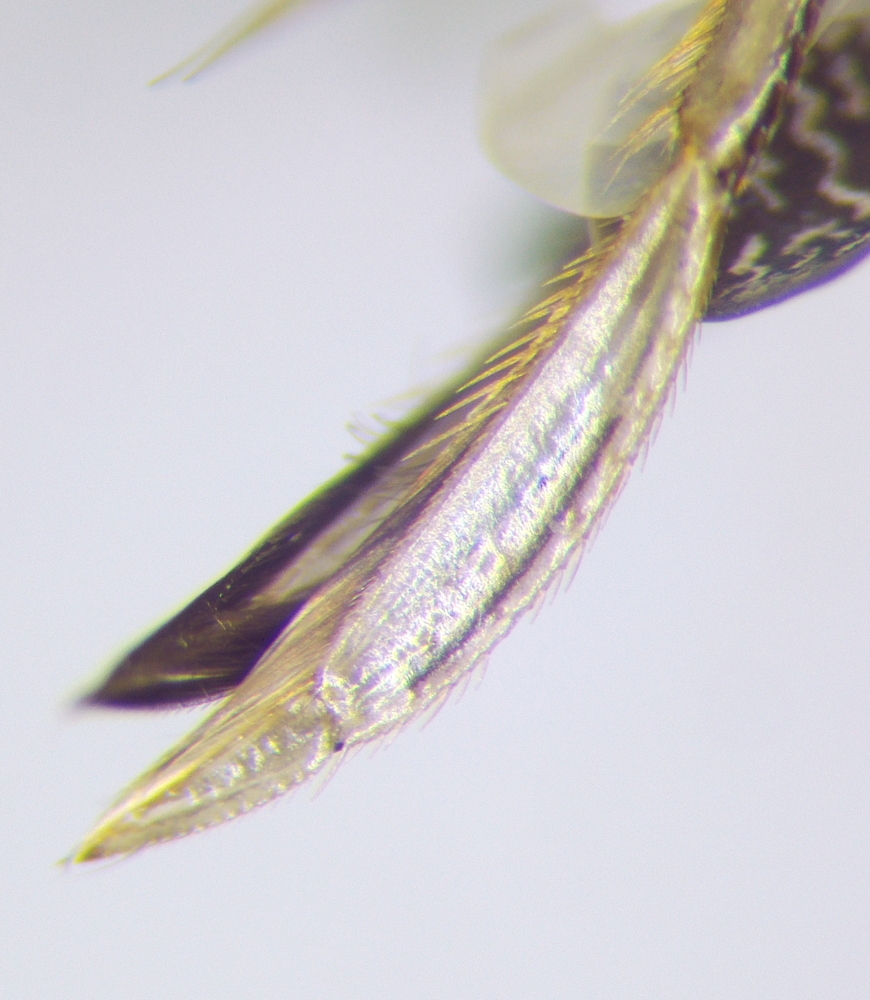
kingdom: Animalia
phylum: Arthropoda
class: Insecta
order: Hemiptera
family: Corixidae
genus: Sigara
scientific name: Sigara striata
